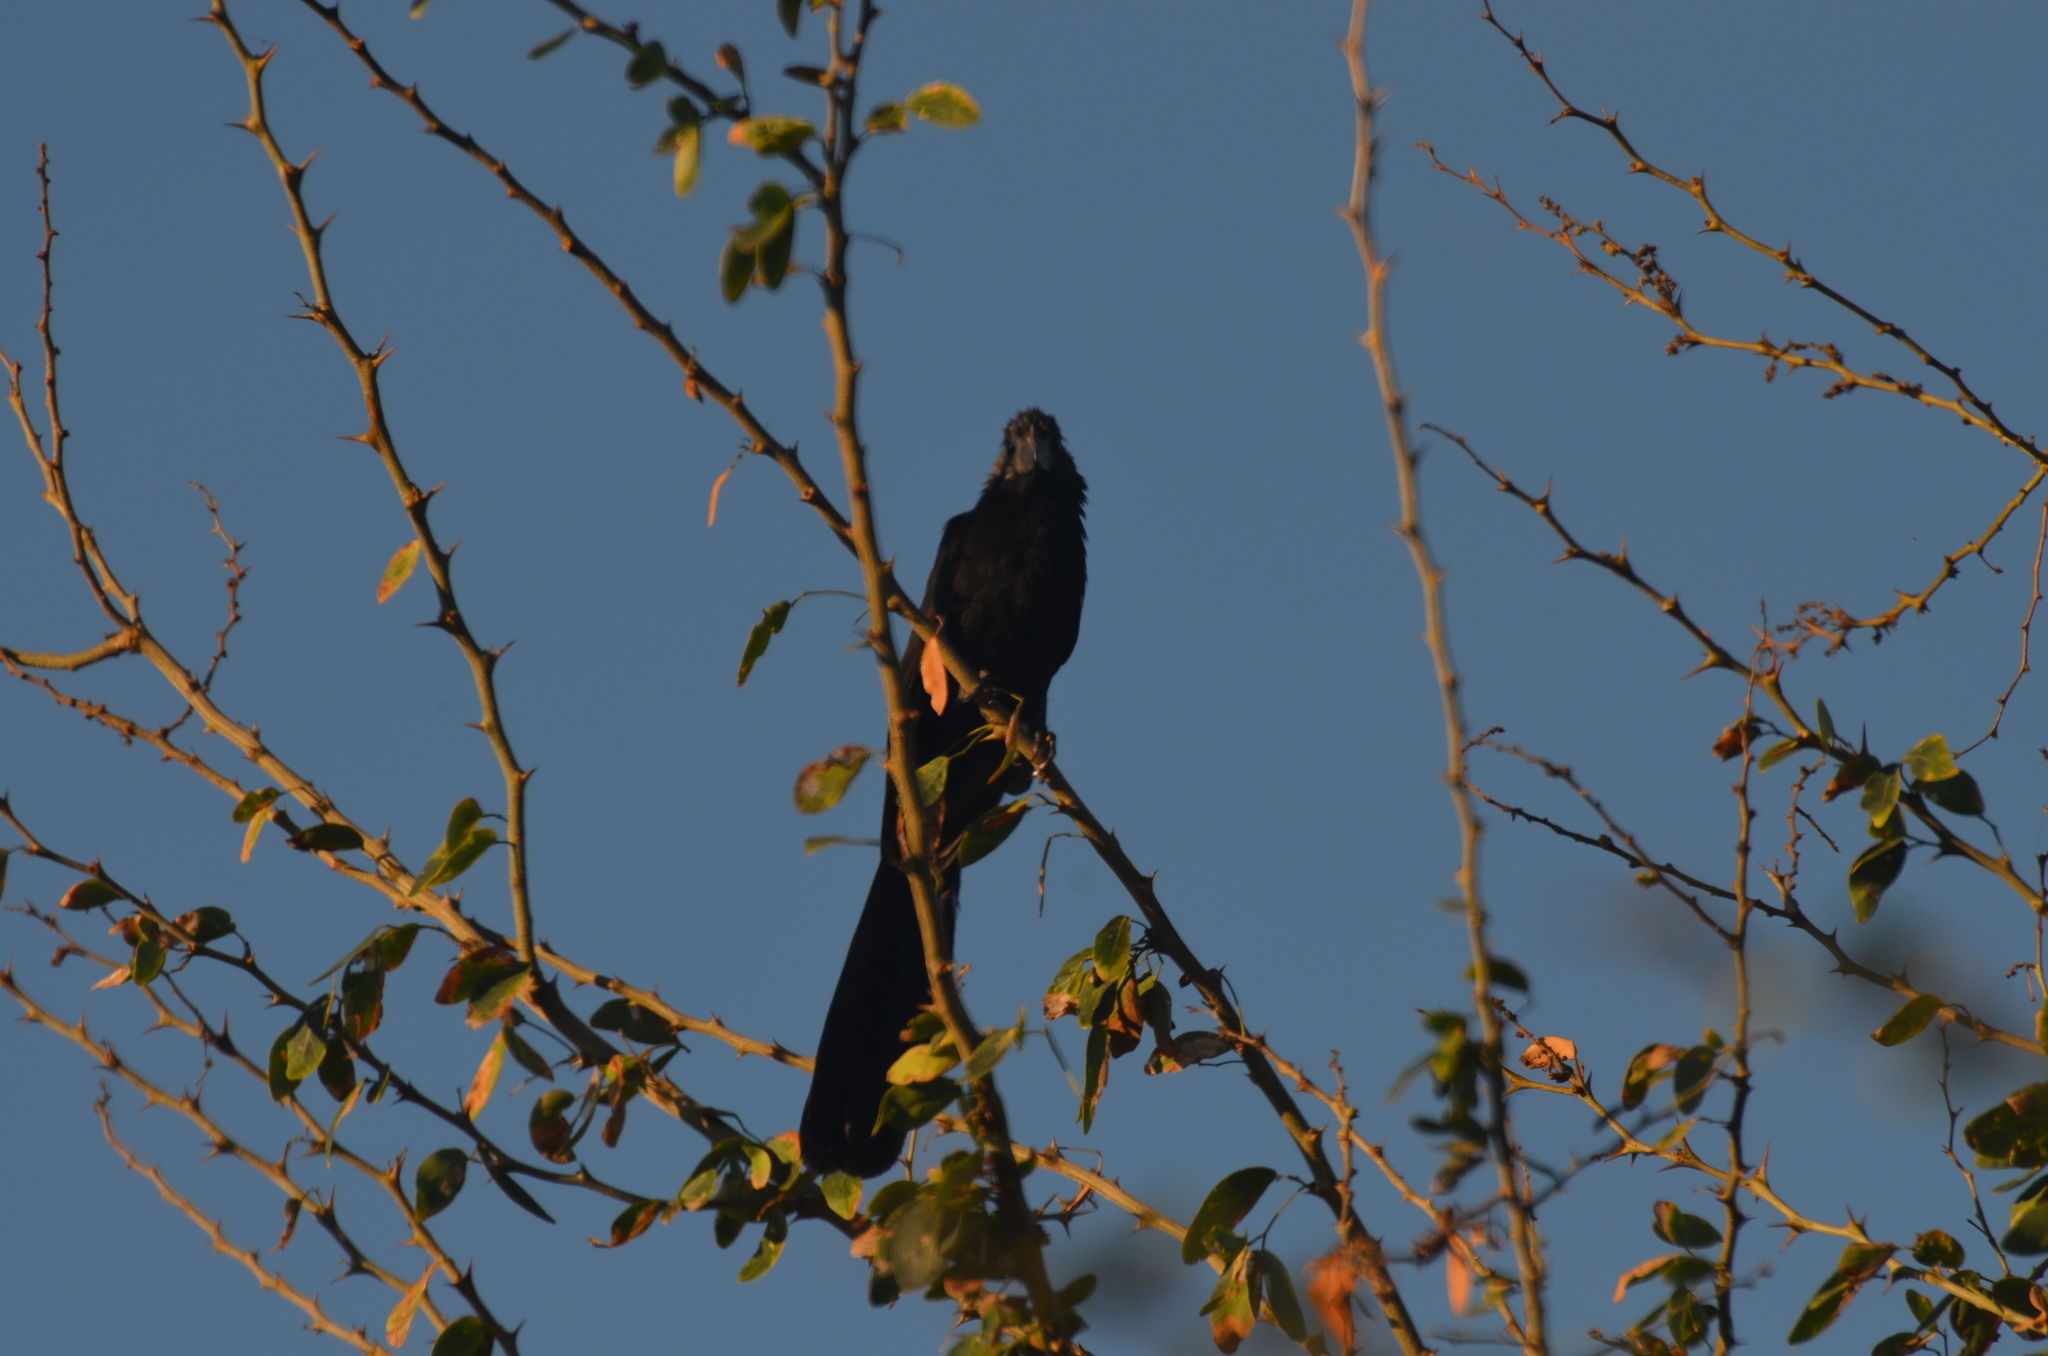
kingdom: Animalia
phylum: Chordata
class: Aves
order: Cuculiformes
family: Cuculidae
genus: Crotophaga
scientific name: Crotophaga sulcirostris
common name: Groove-billed ani
